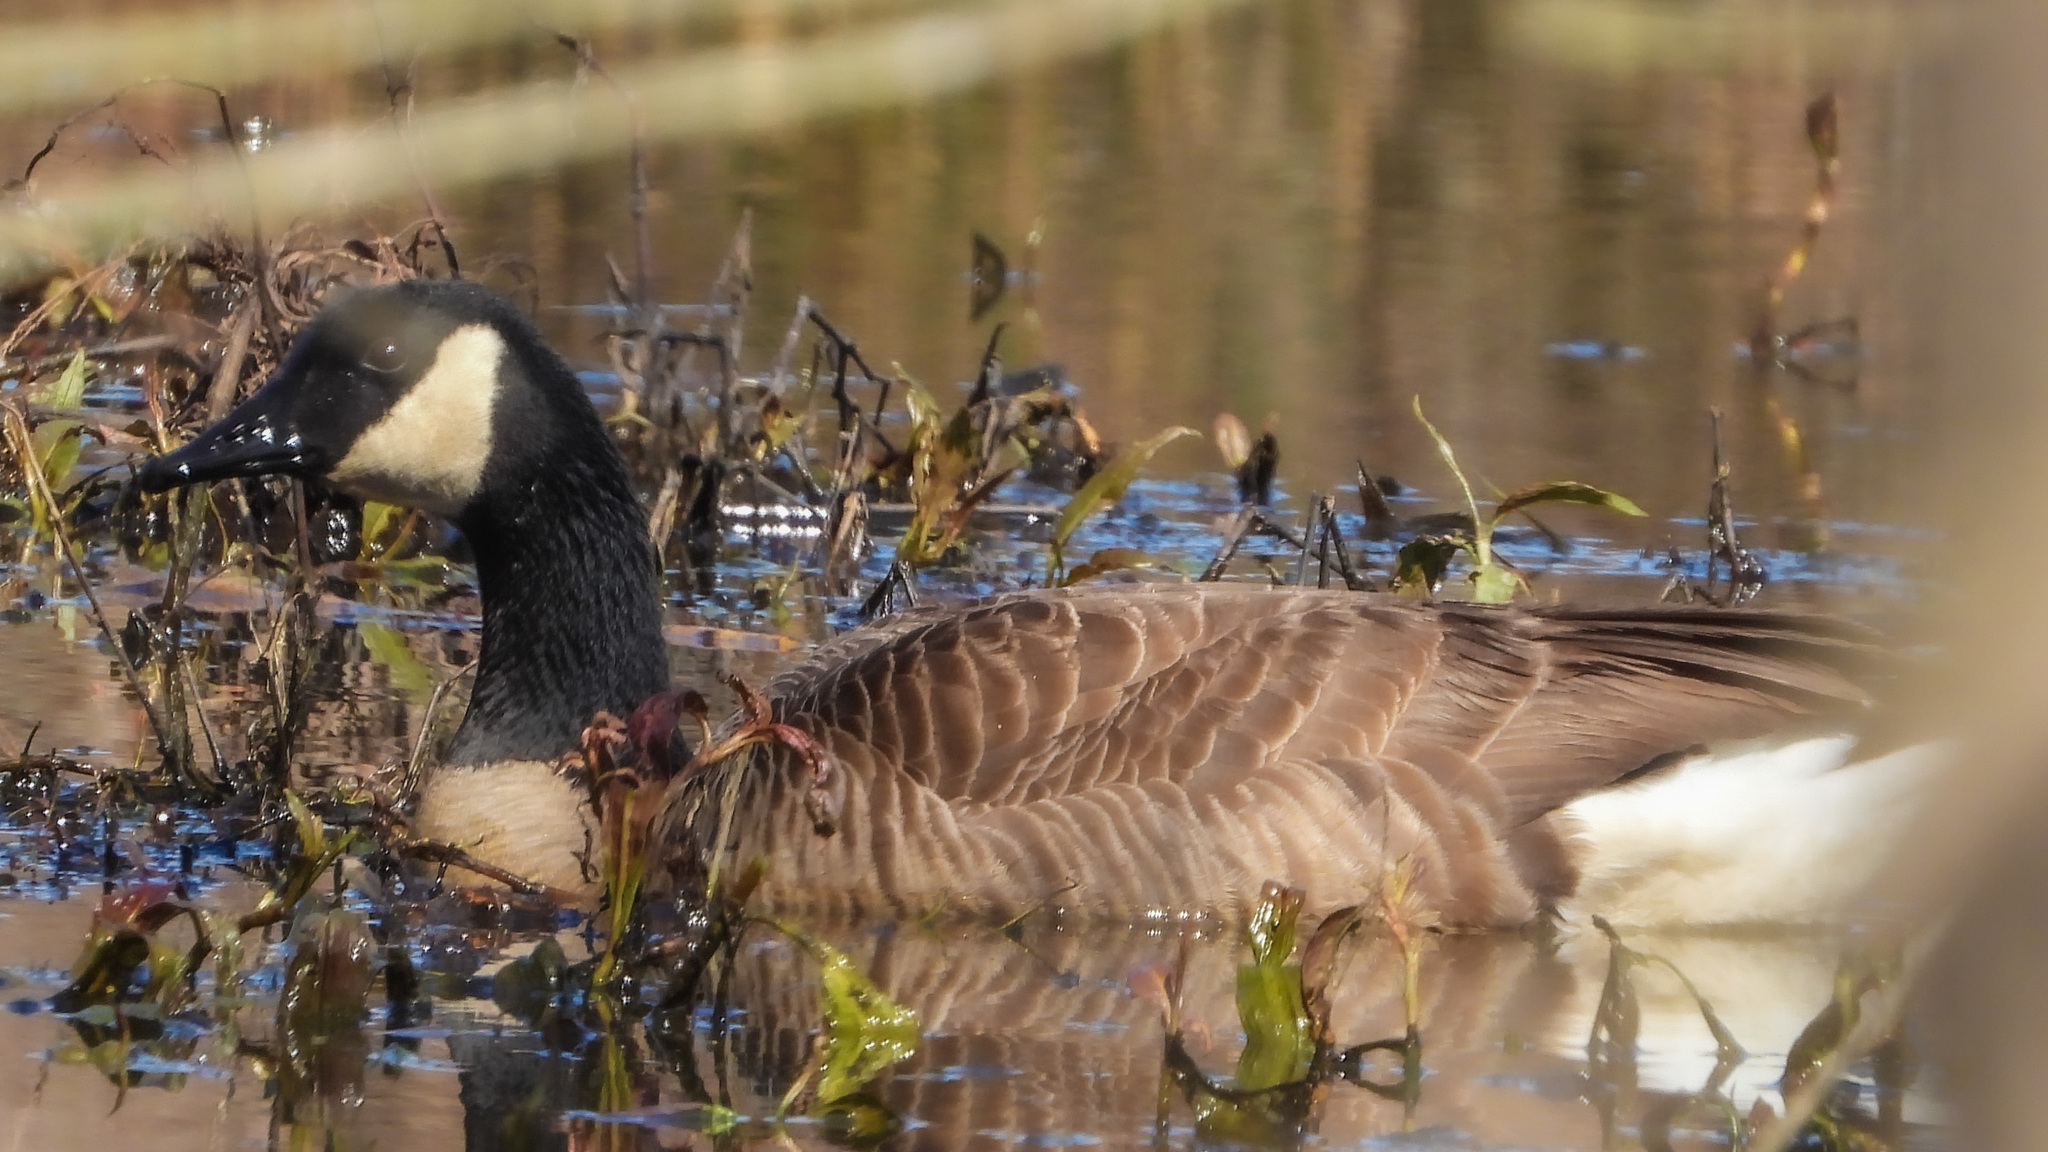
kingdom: Animalia
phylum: Chordata
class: Aves
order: Anseriformes
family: Anatidae
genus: Branta
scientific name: Branta canadensis
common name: Canada goose
